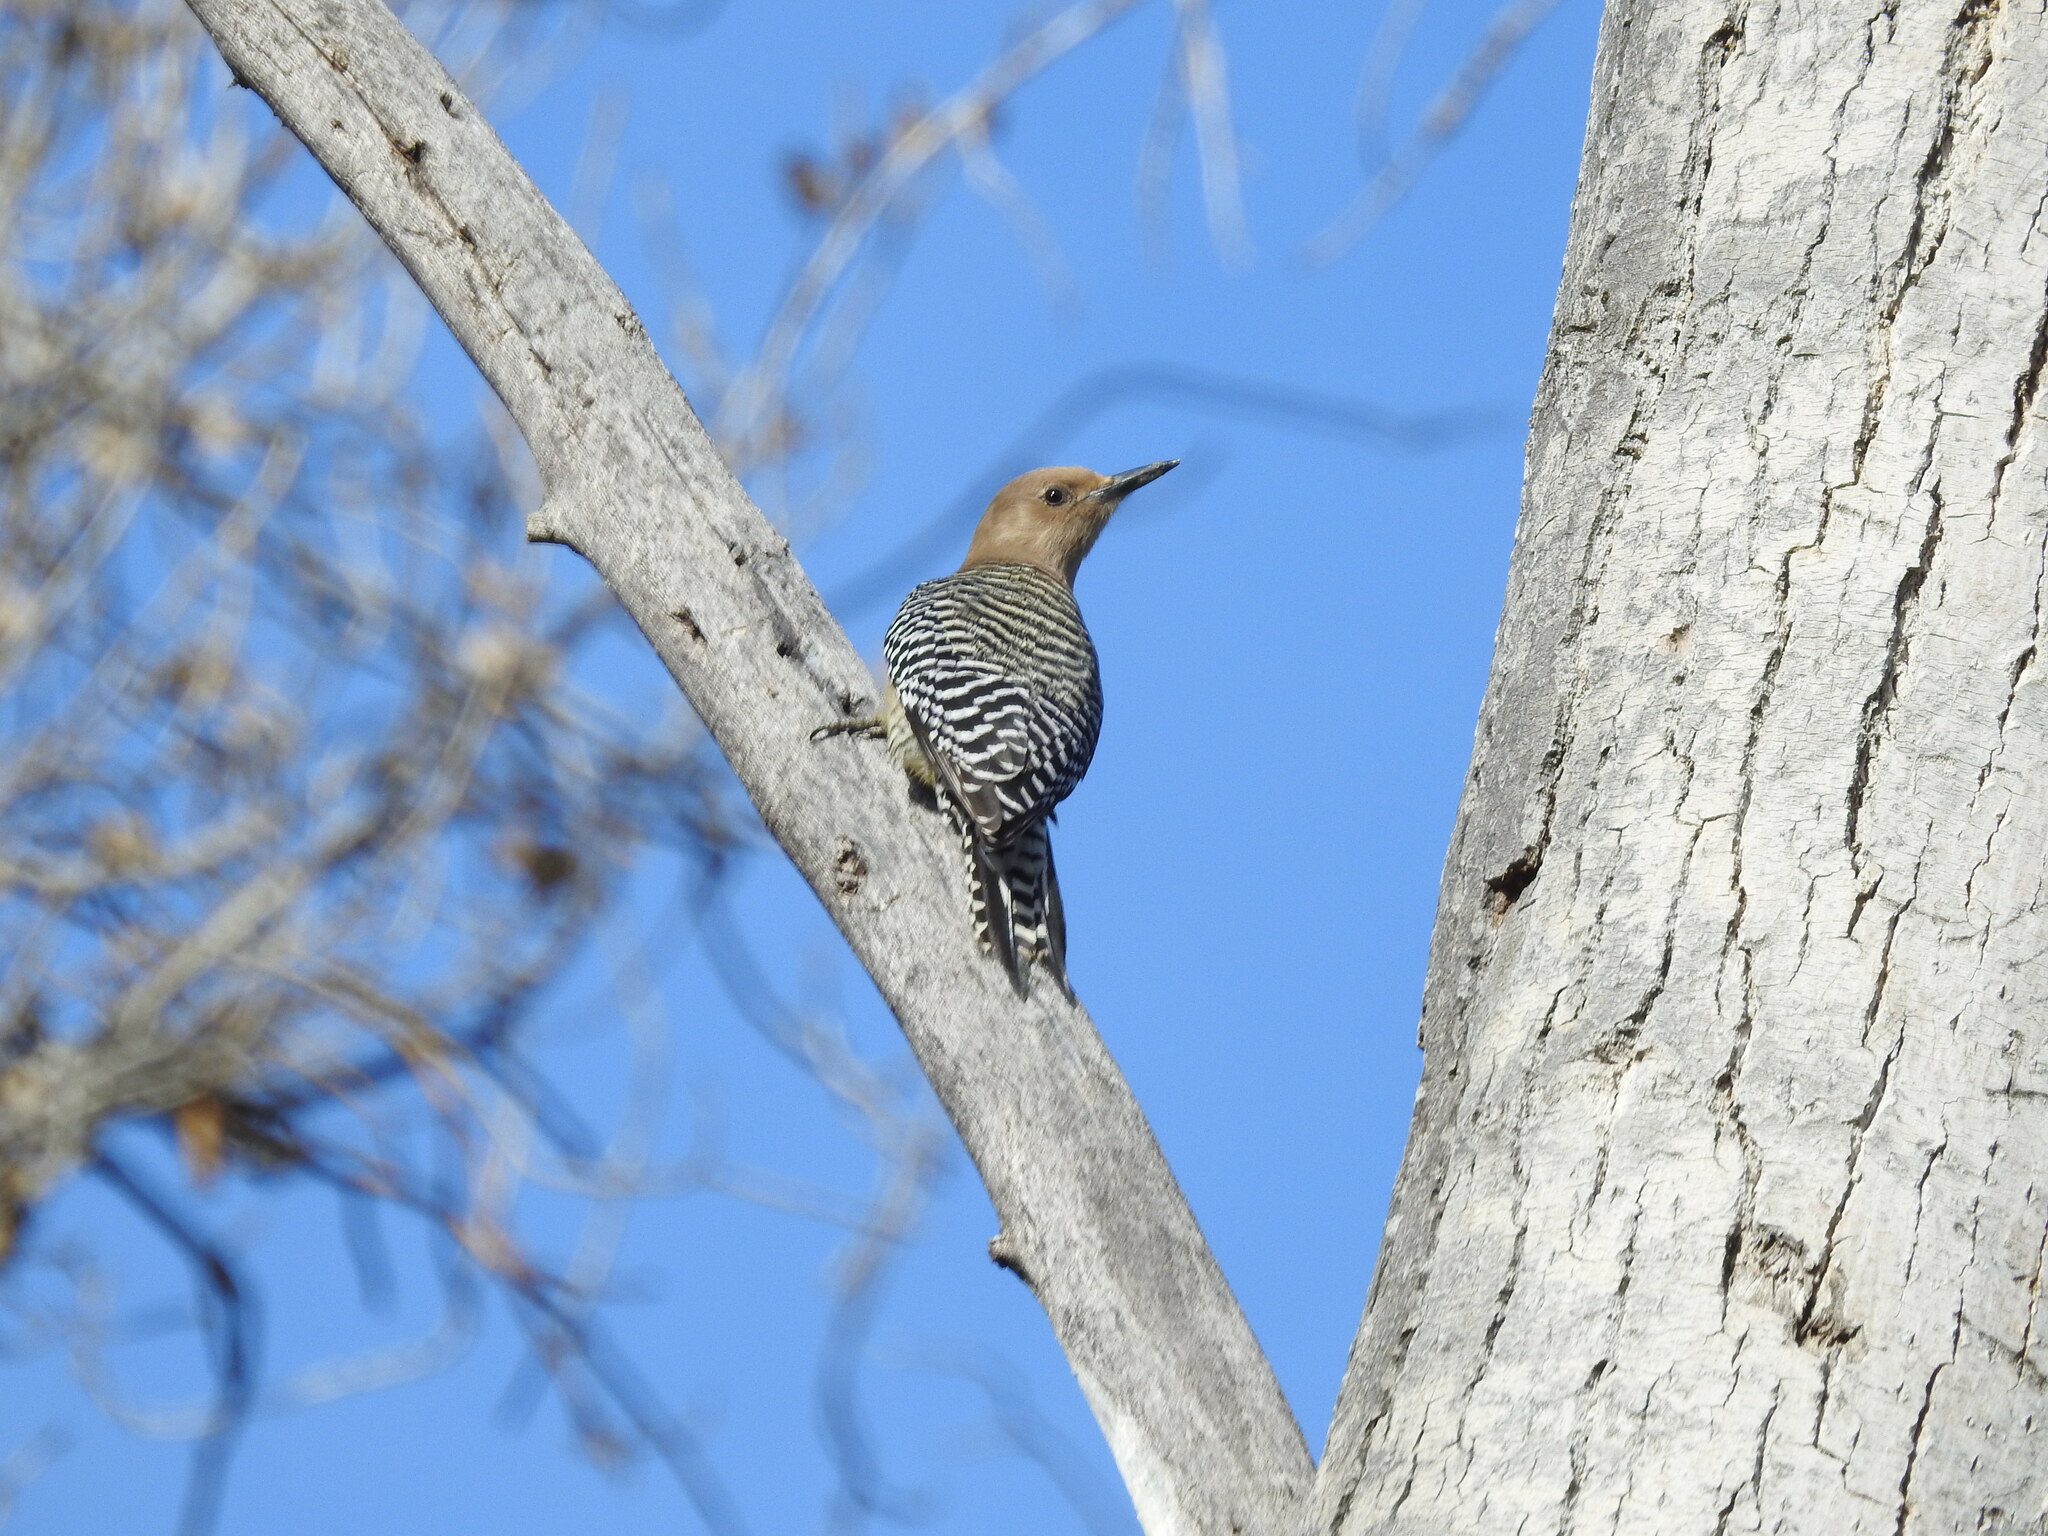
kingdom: Animalia
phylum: Chordata
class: Aves
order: Piciformes
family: Picidae
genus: Melanerpes
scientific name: Melanerpes uropygialis
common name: Gila woodpecker
